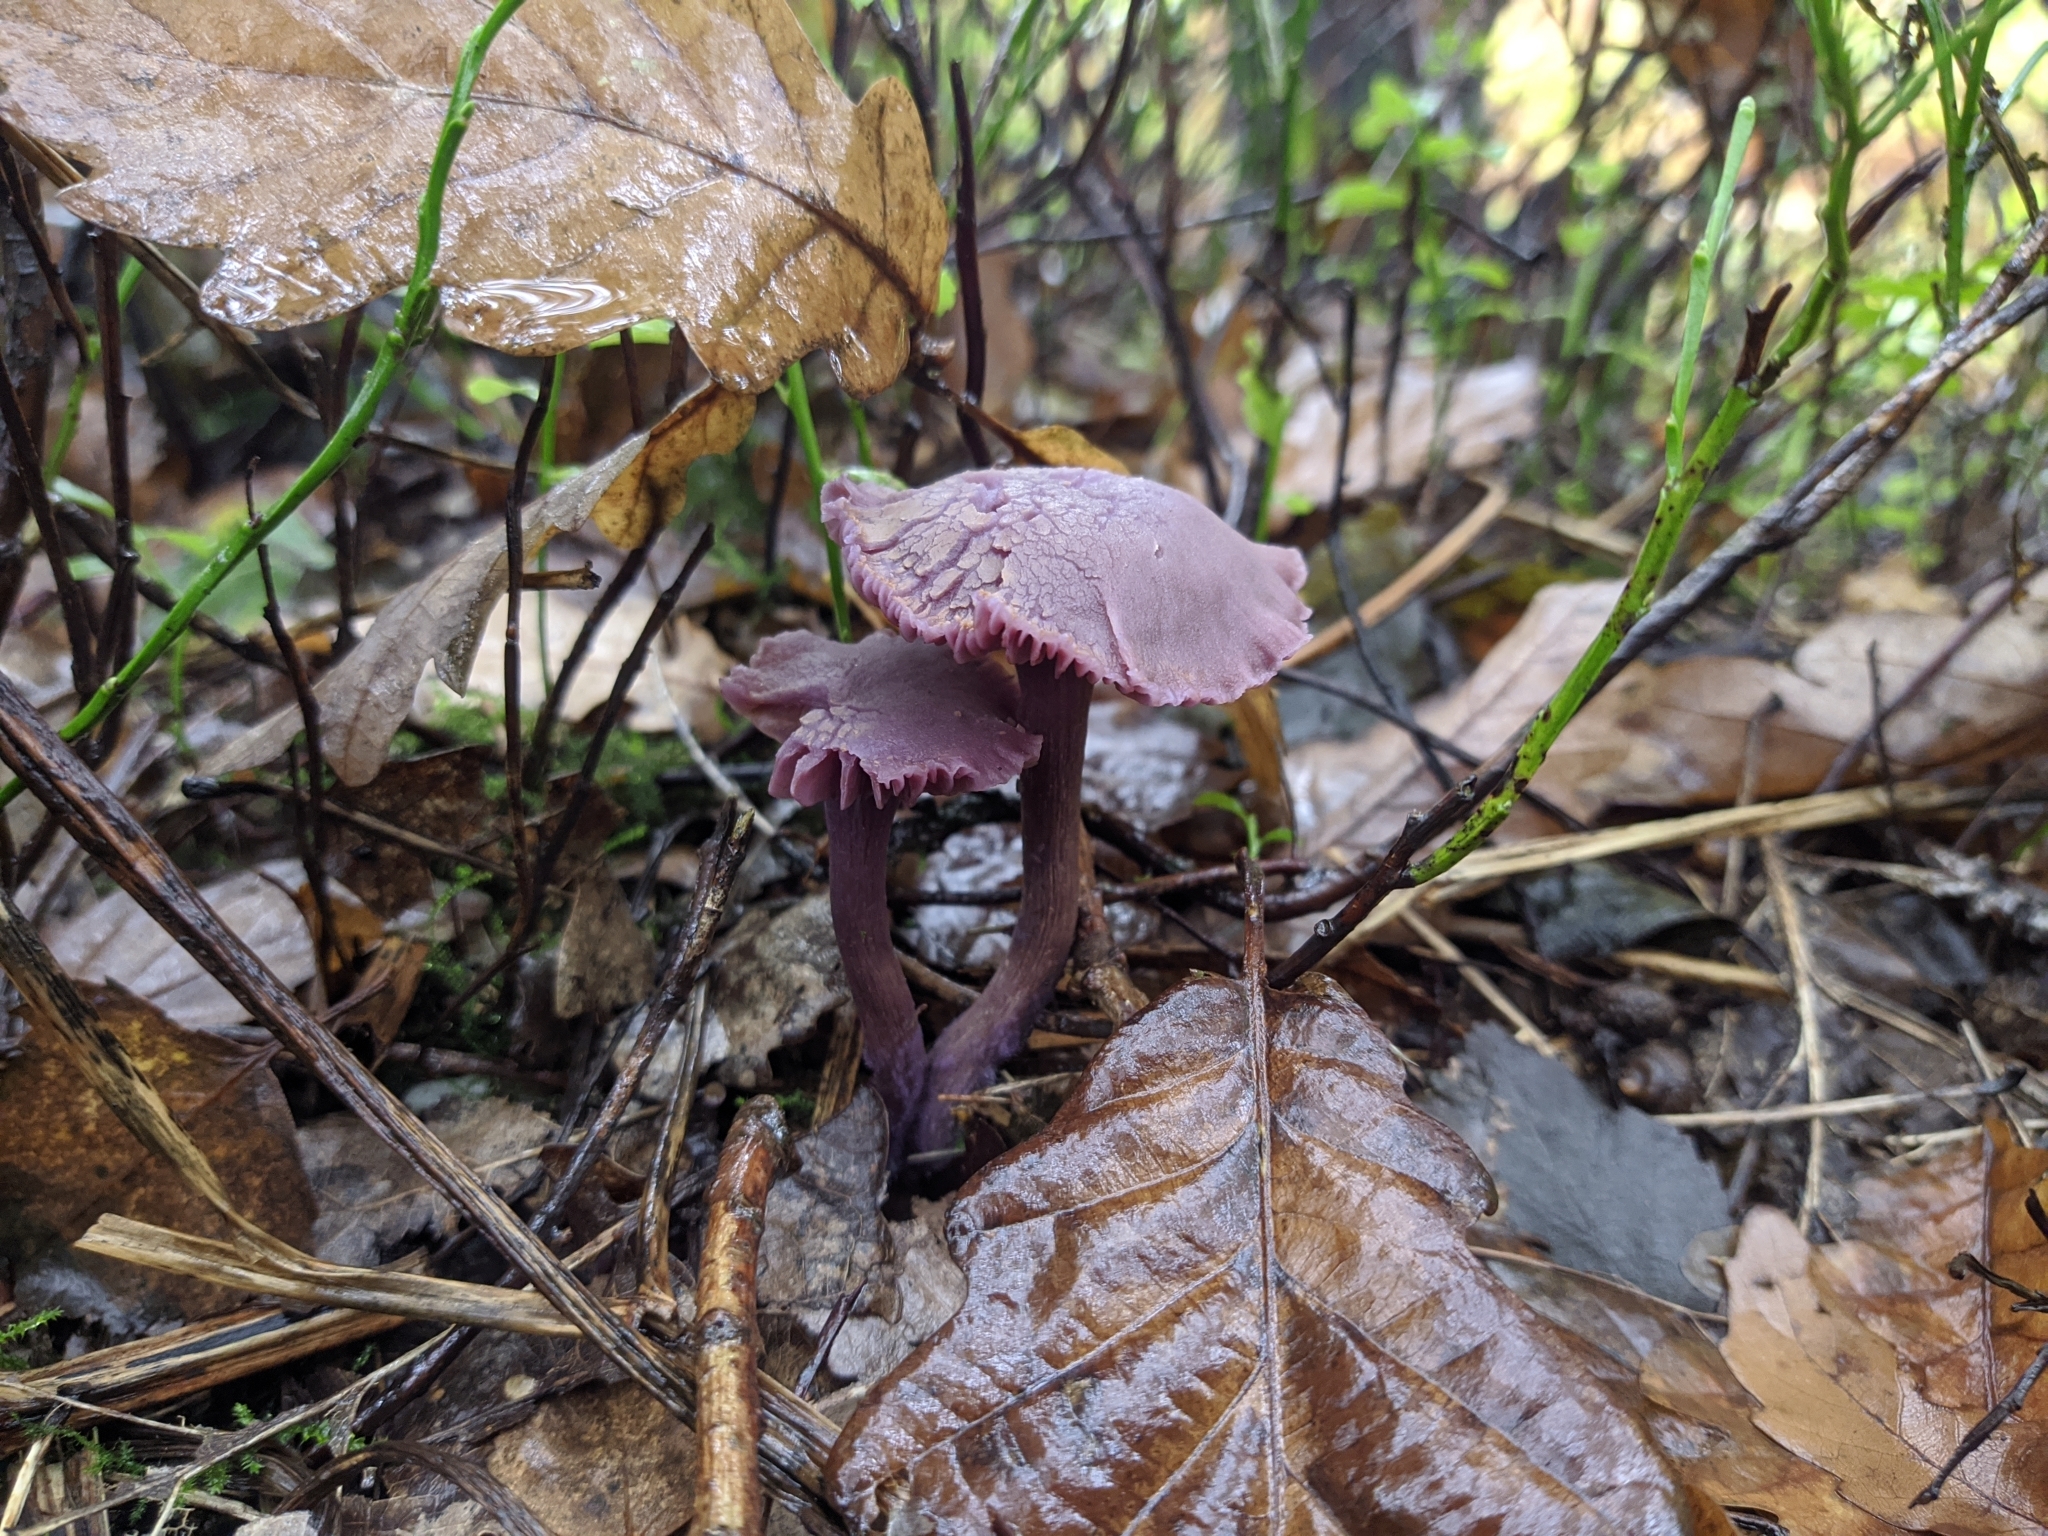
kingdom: Fungi
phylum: Basidiomycota
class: Agaricomycetes
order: Agaricales
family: Hydnangiaceae
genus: Laccaria
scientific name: Laccaria amethystina
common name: Amethyst deceiver
